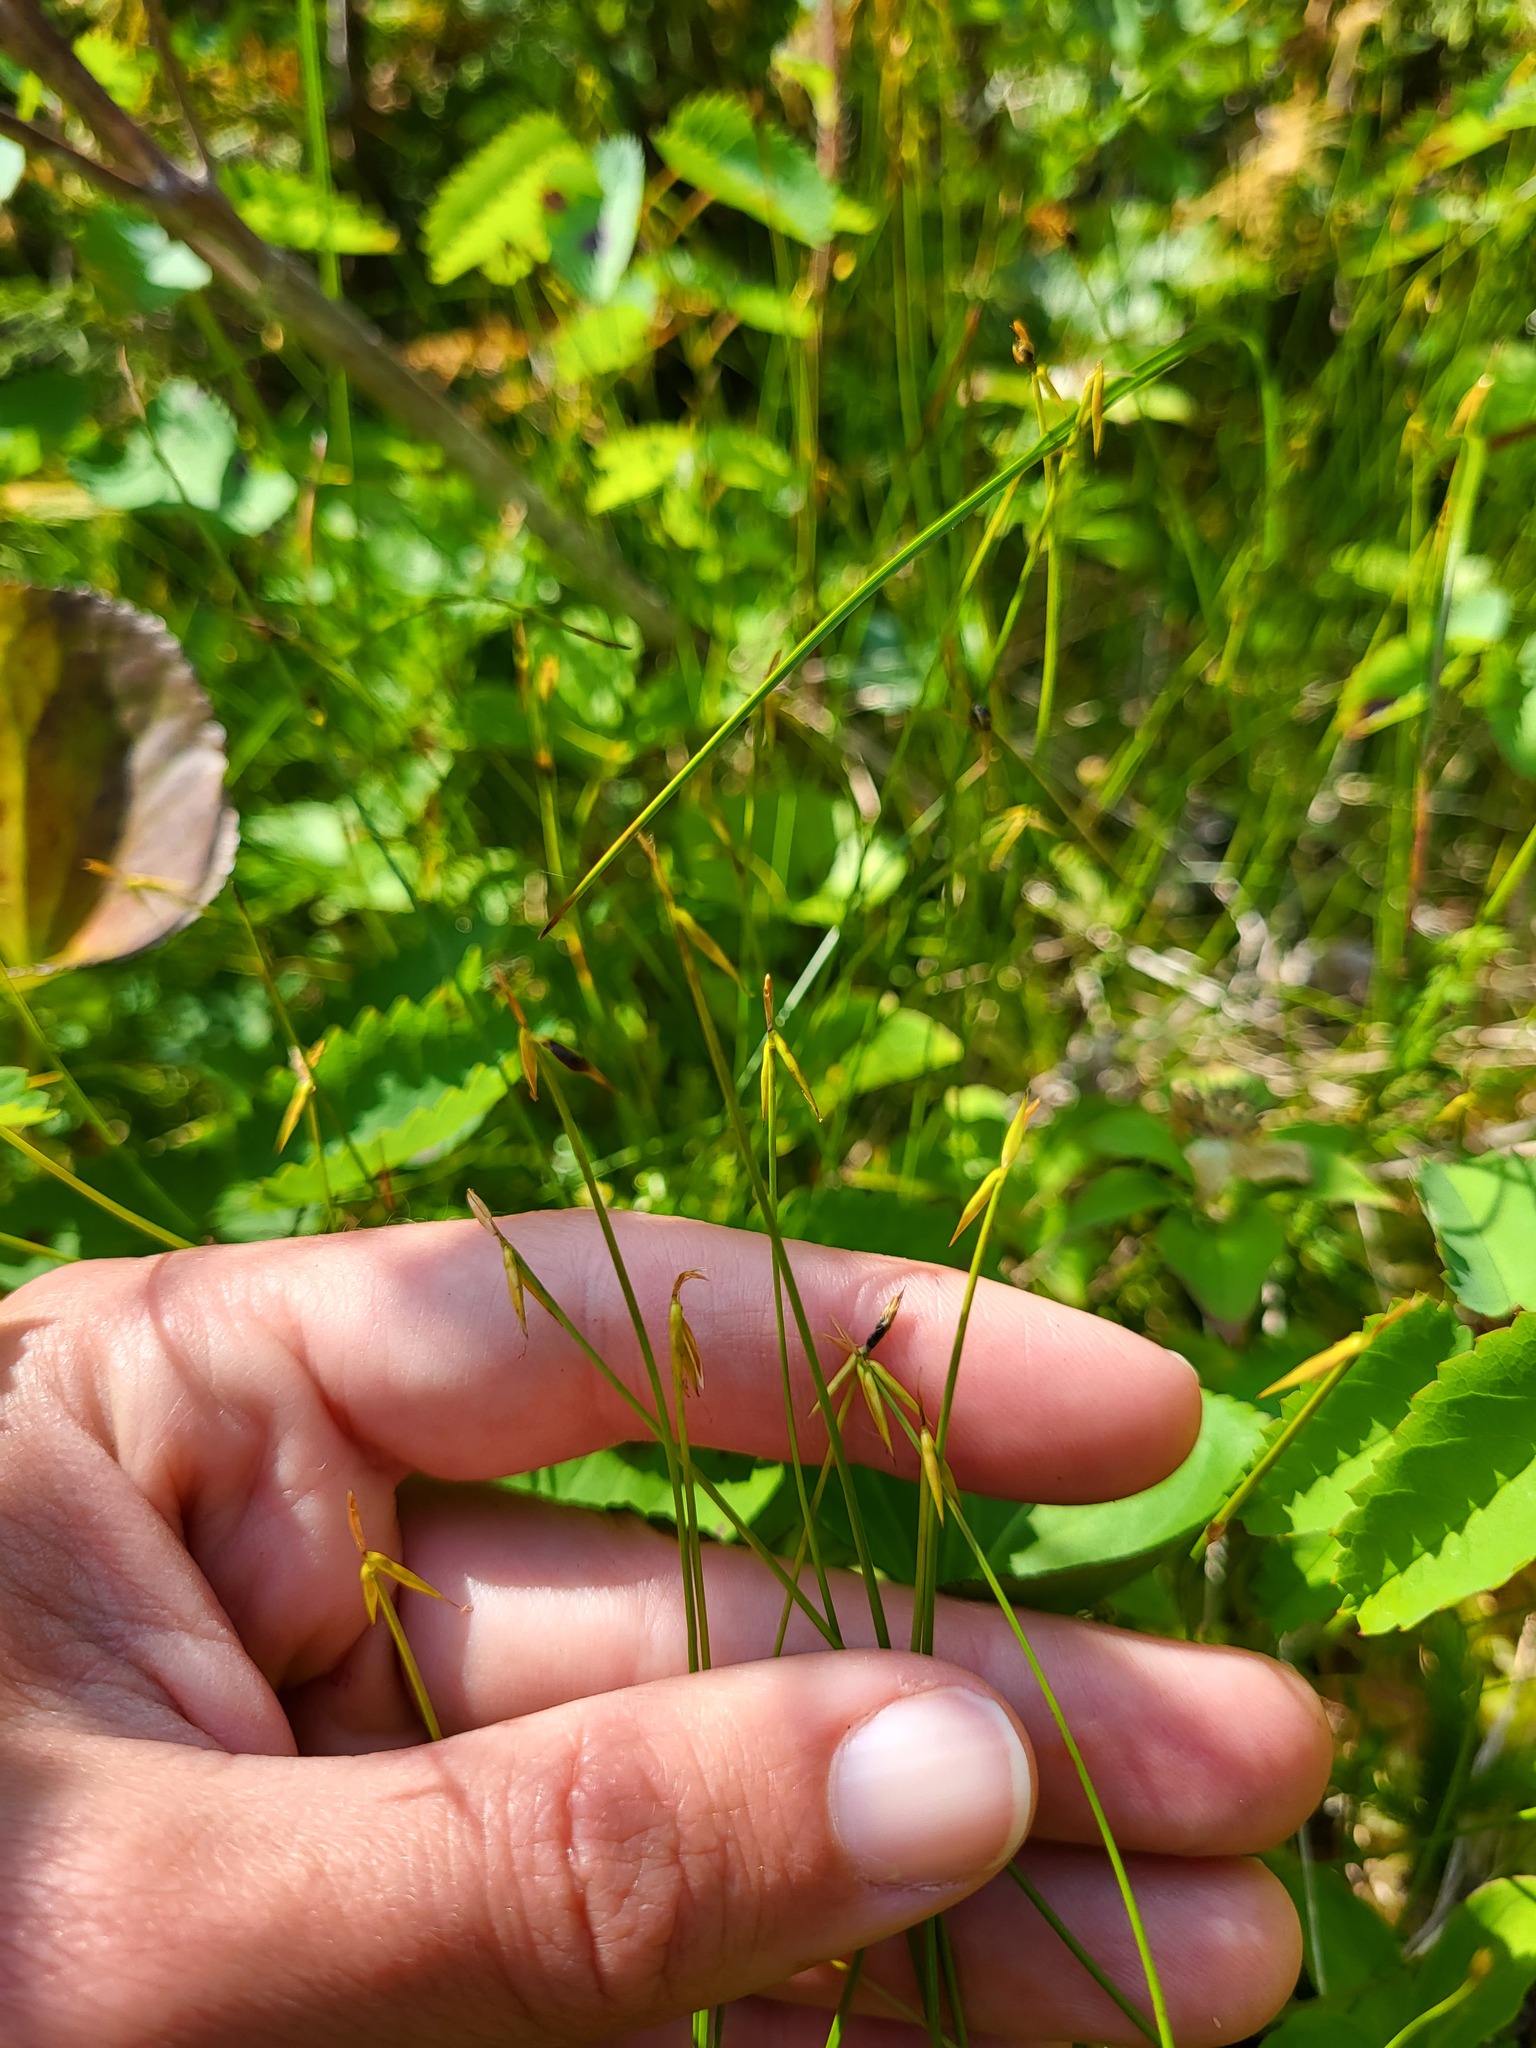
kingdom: Plantae
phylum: Tracheophyta
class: Liliopsida
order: Poales
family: Cyperaceae
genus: Carex
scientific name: Carex pauciflora
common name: Few-flowered sedge
